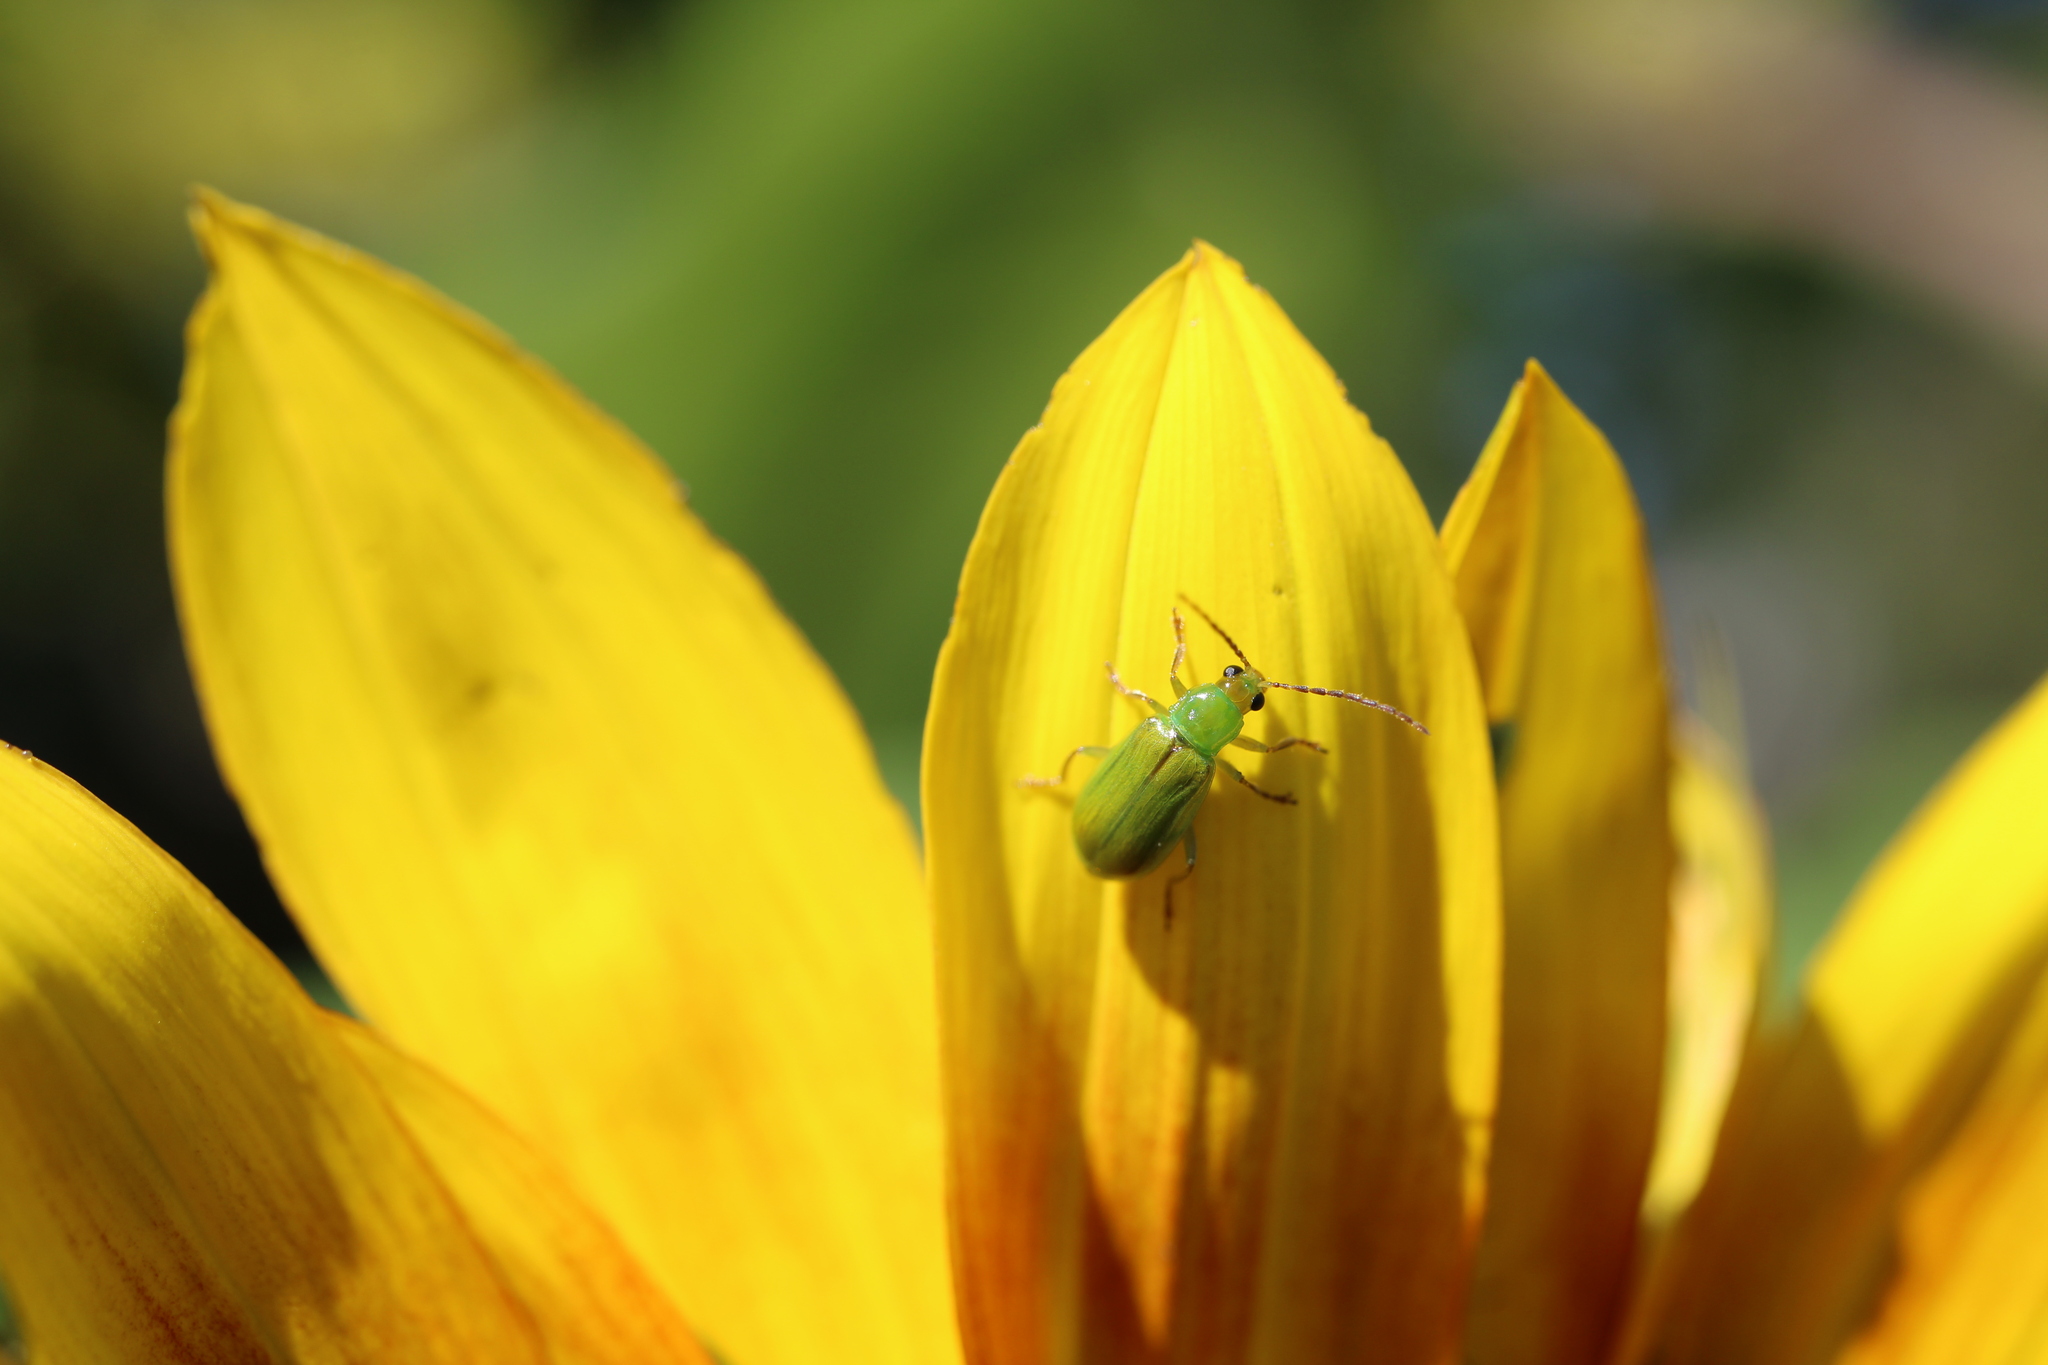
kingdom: Animalia
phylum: Arthropoda
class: Insecta
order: Coleoptera
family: Chrysomelidae
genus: Diabrotica
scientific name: Diabrotica barberi
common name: Northern corn rootworm
